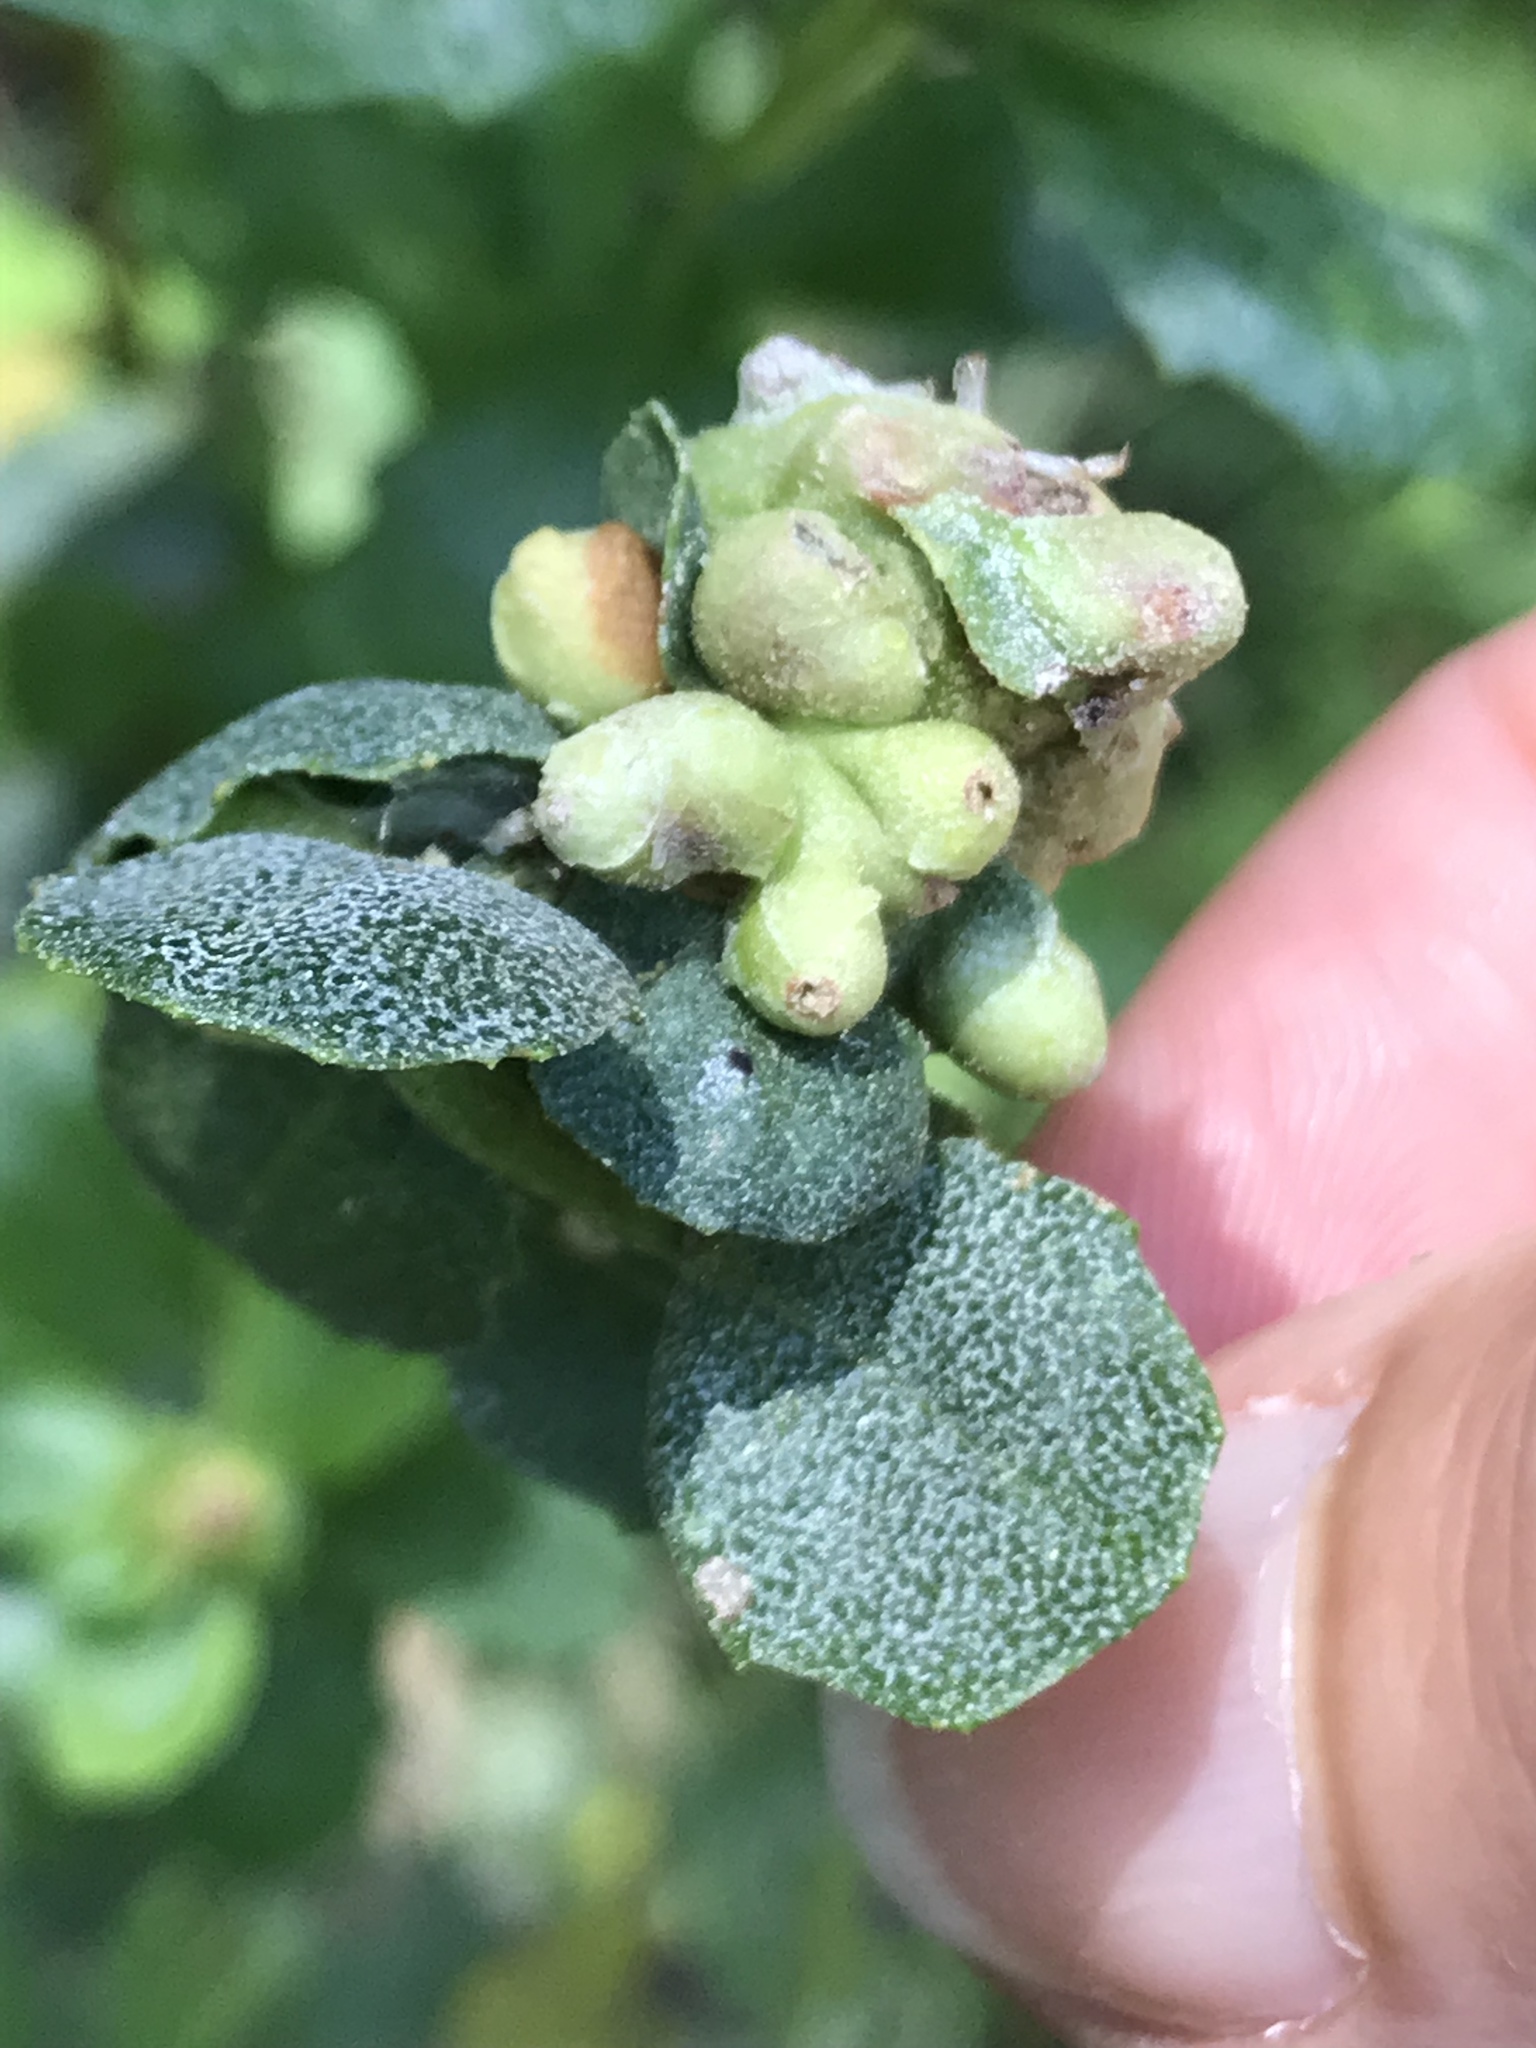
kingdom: Animalia
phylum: Arthropoda
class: Insecta
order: Diptera
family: Cecidomyiidae
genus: Rhopalomyia
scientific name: Rhopalomyia californica
